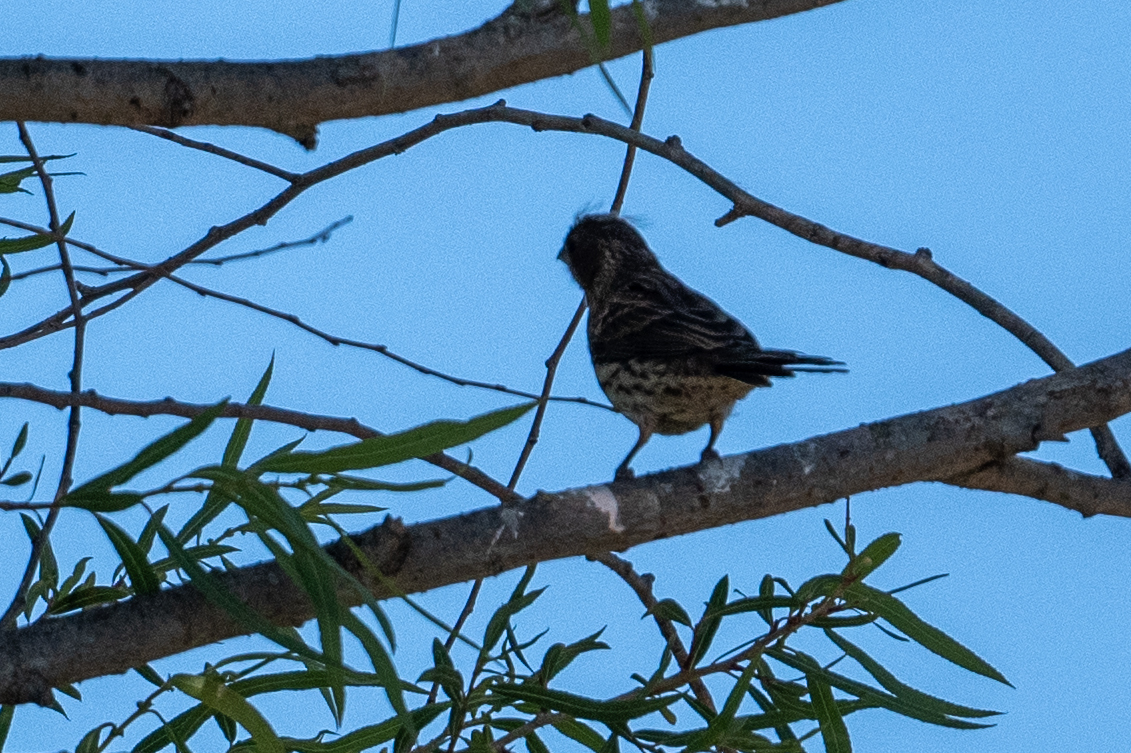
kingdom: Animalia
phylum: Chordata
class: Aves
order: Passeriformes
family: Fringillidae
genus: Haemorhous
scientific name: Haemorhous mexicanus
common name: House finch
